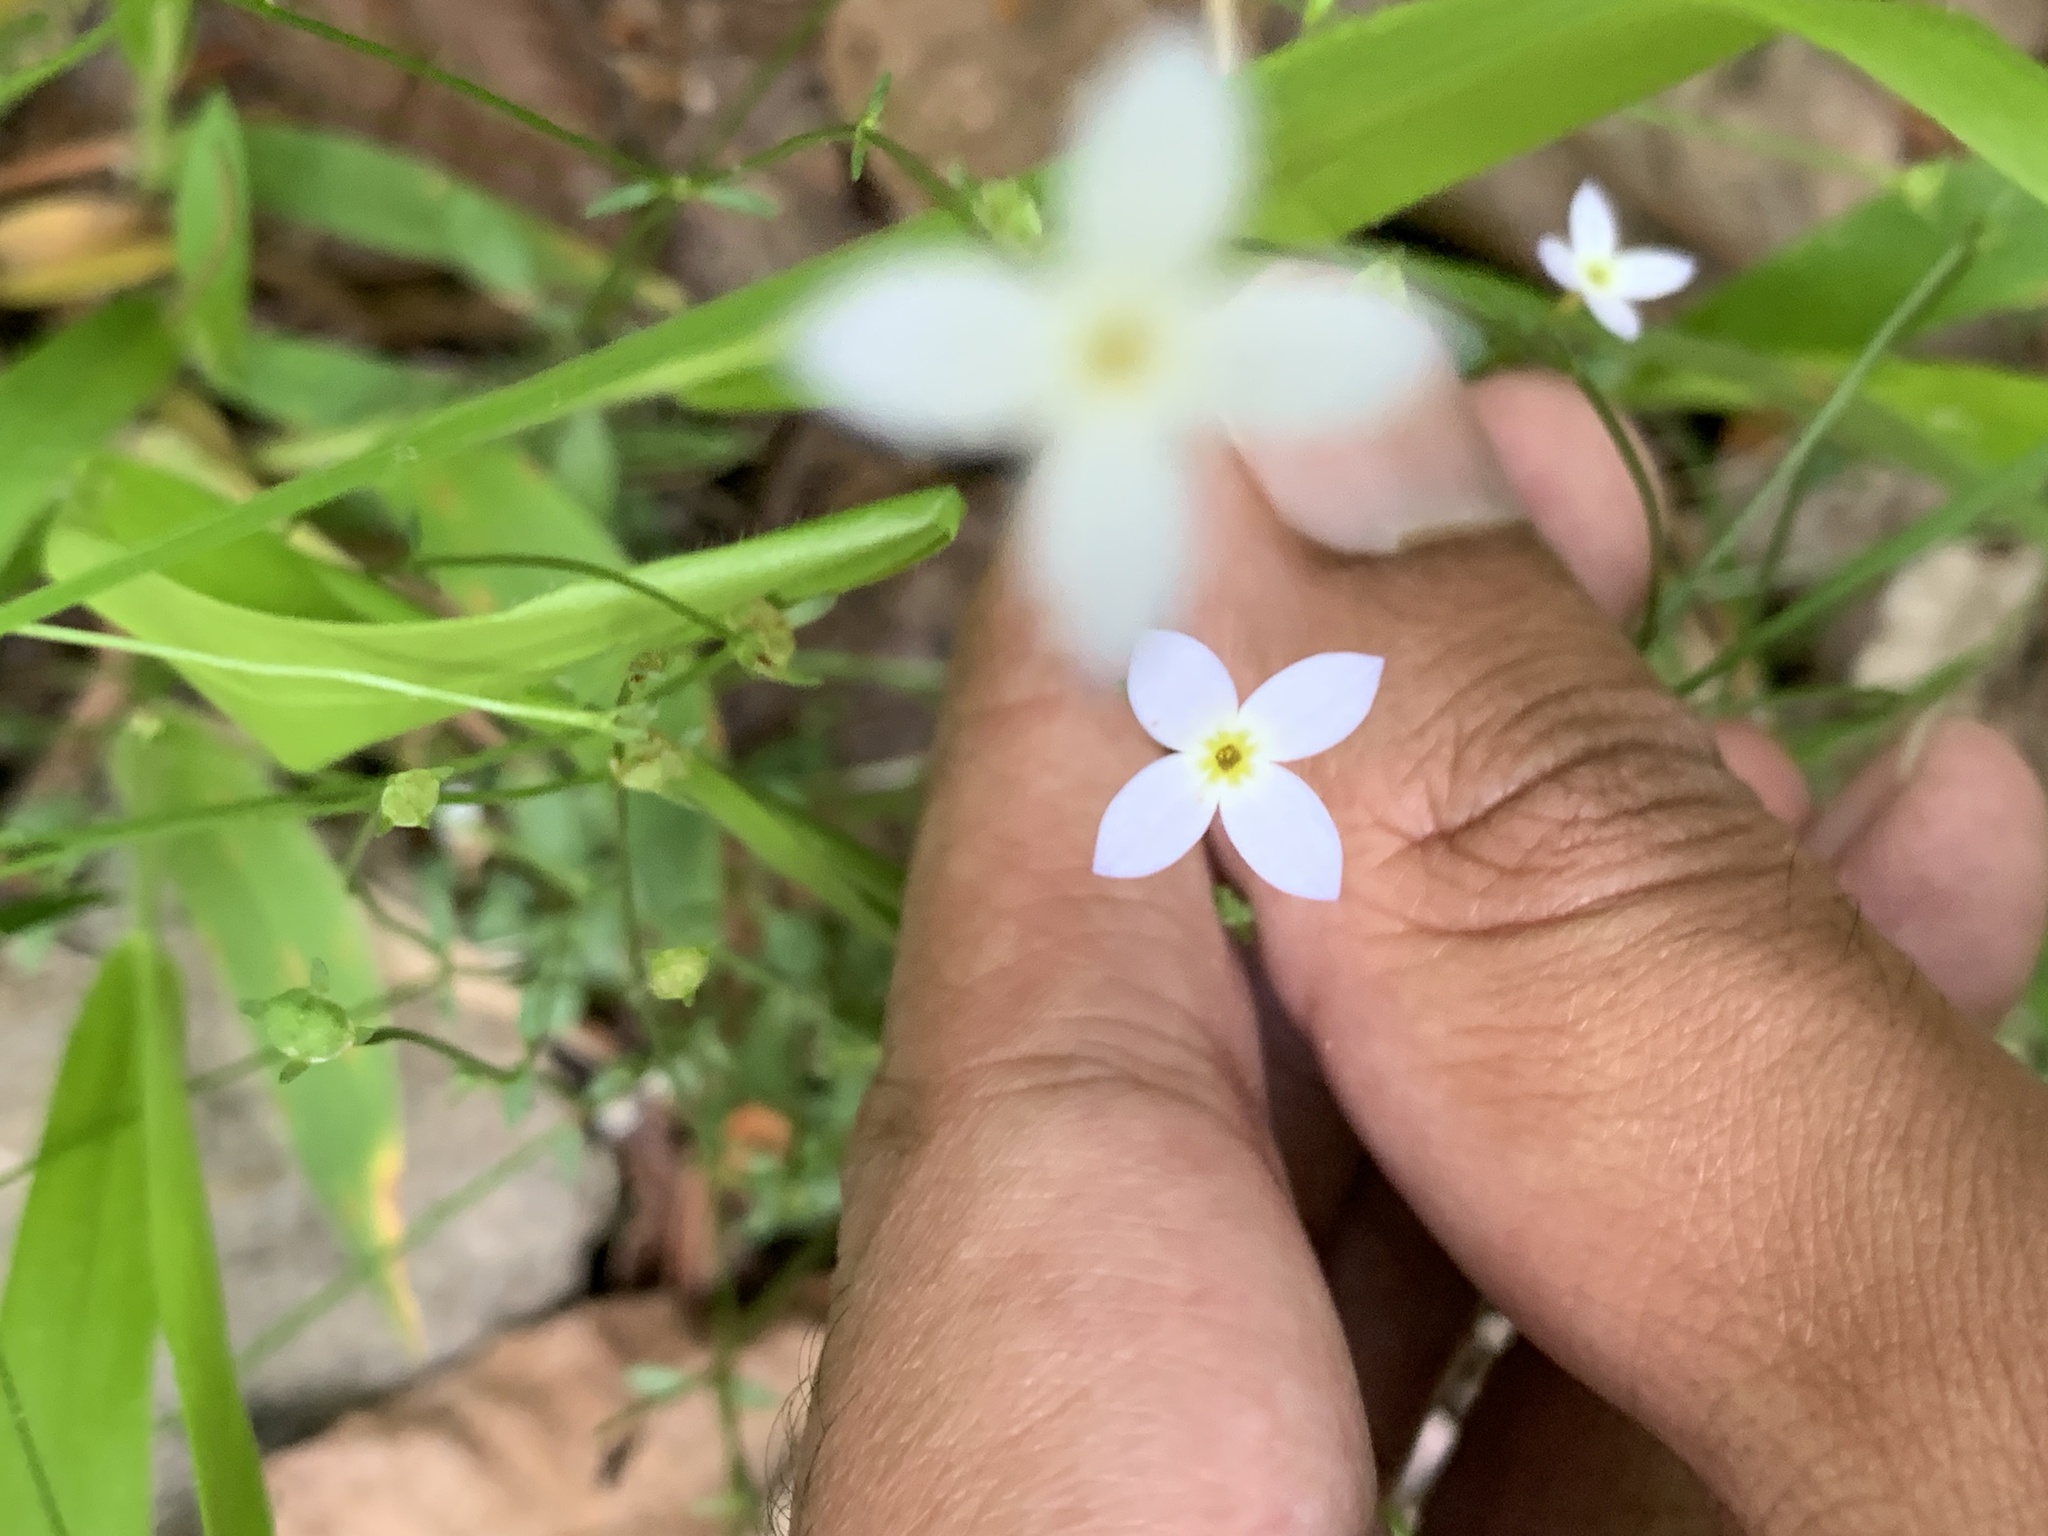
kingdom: Plantae
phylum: Tracheophyta
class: Magnoliopsida
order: Gentianales
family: Rubiaceae
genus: Houstonia
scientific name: Houstonia caerulea
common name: Bluets
